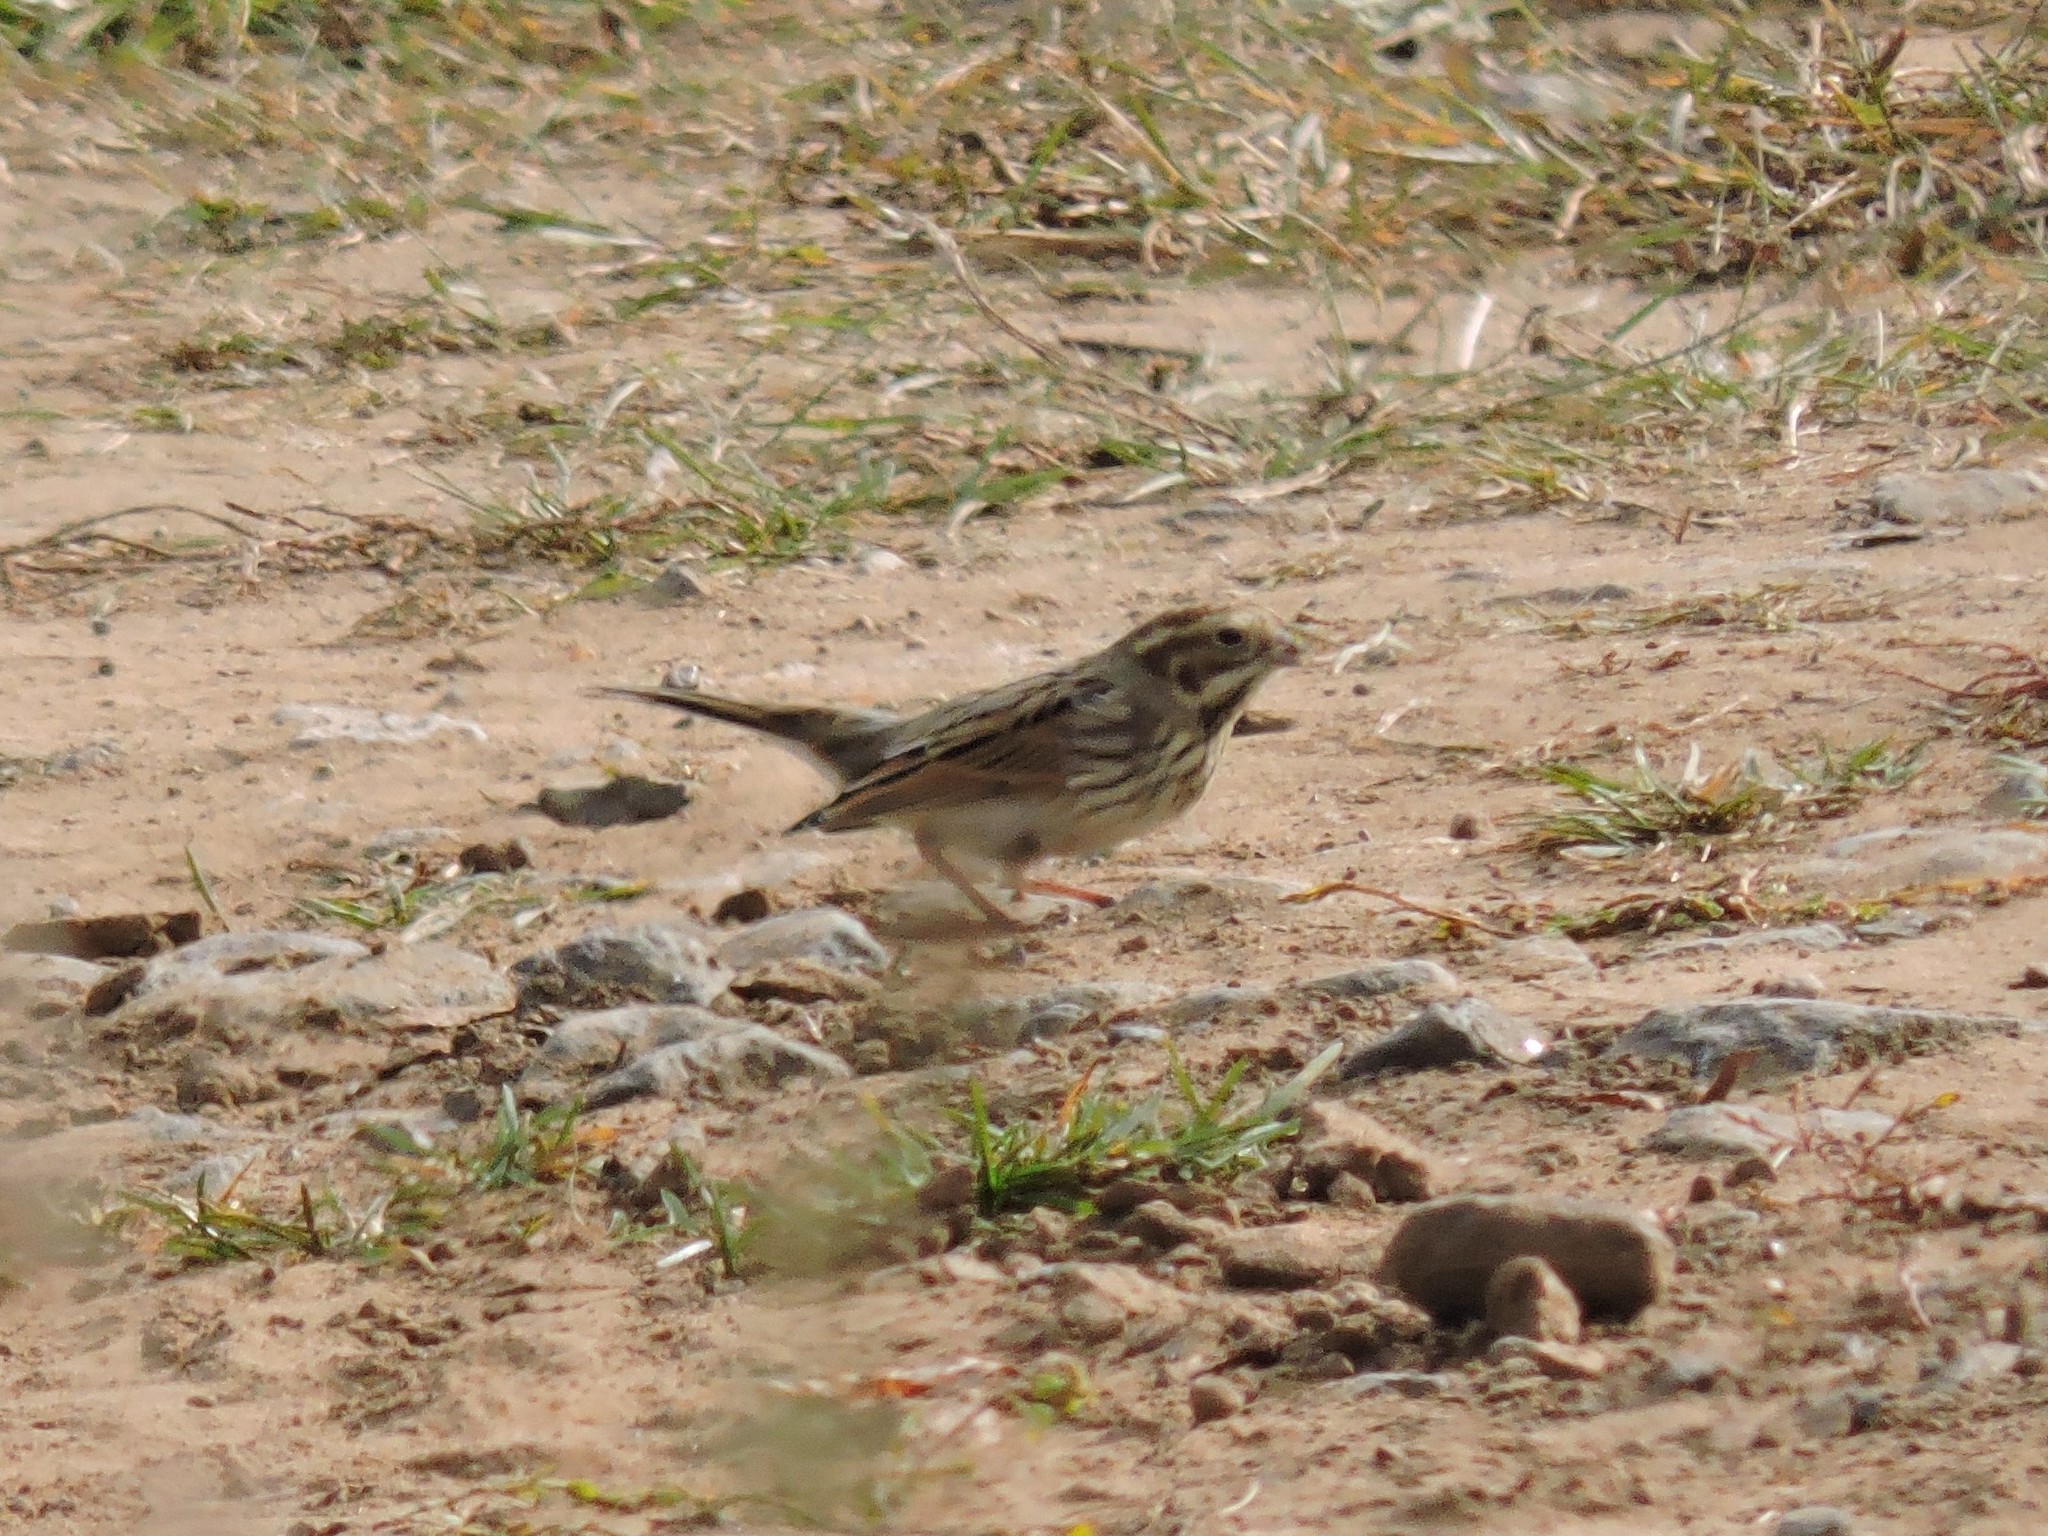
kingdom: Animalia
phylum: Chordata
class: Aves
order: Passeriformes
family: Emberizidae
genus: Emberiza
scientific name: Emberiza schoeniclus
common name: Reed bunting
